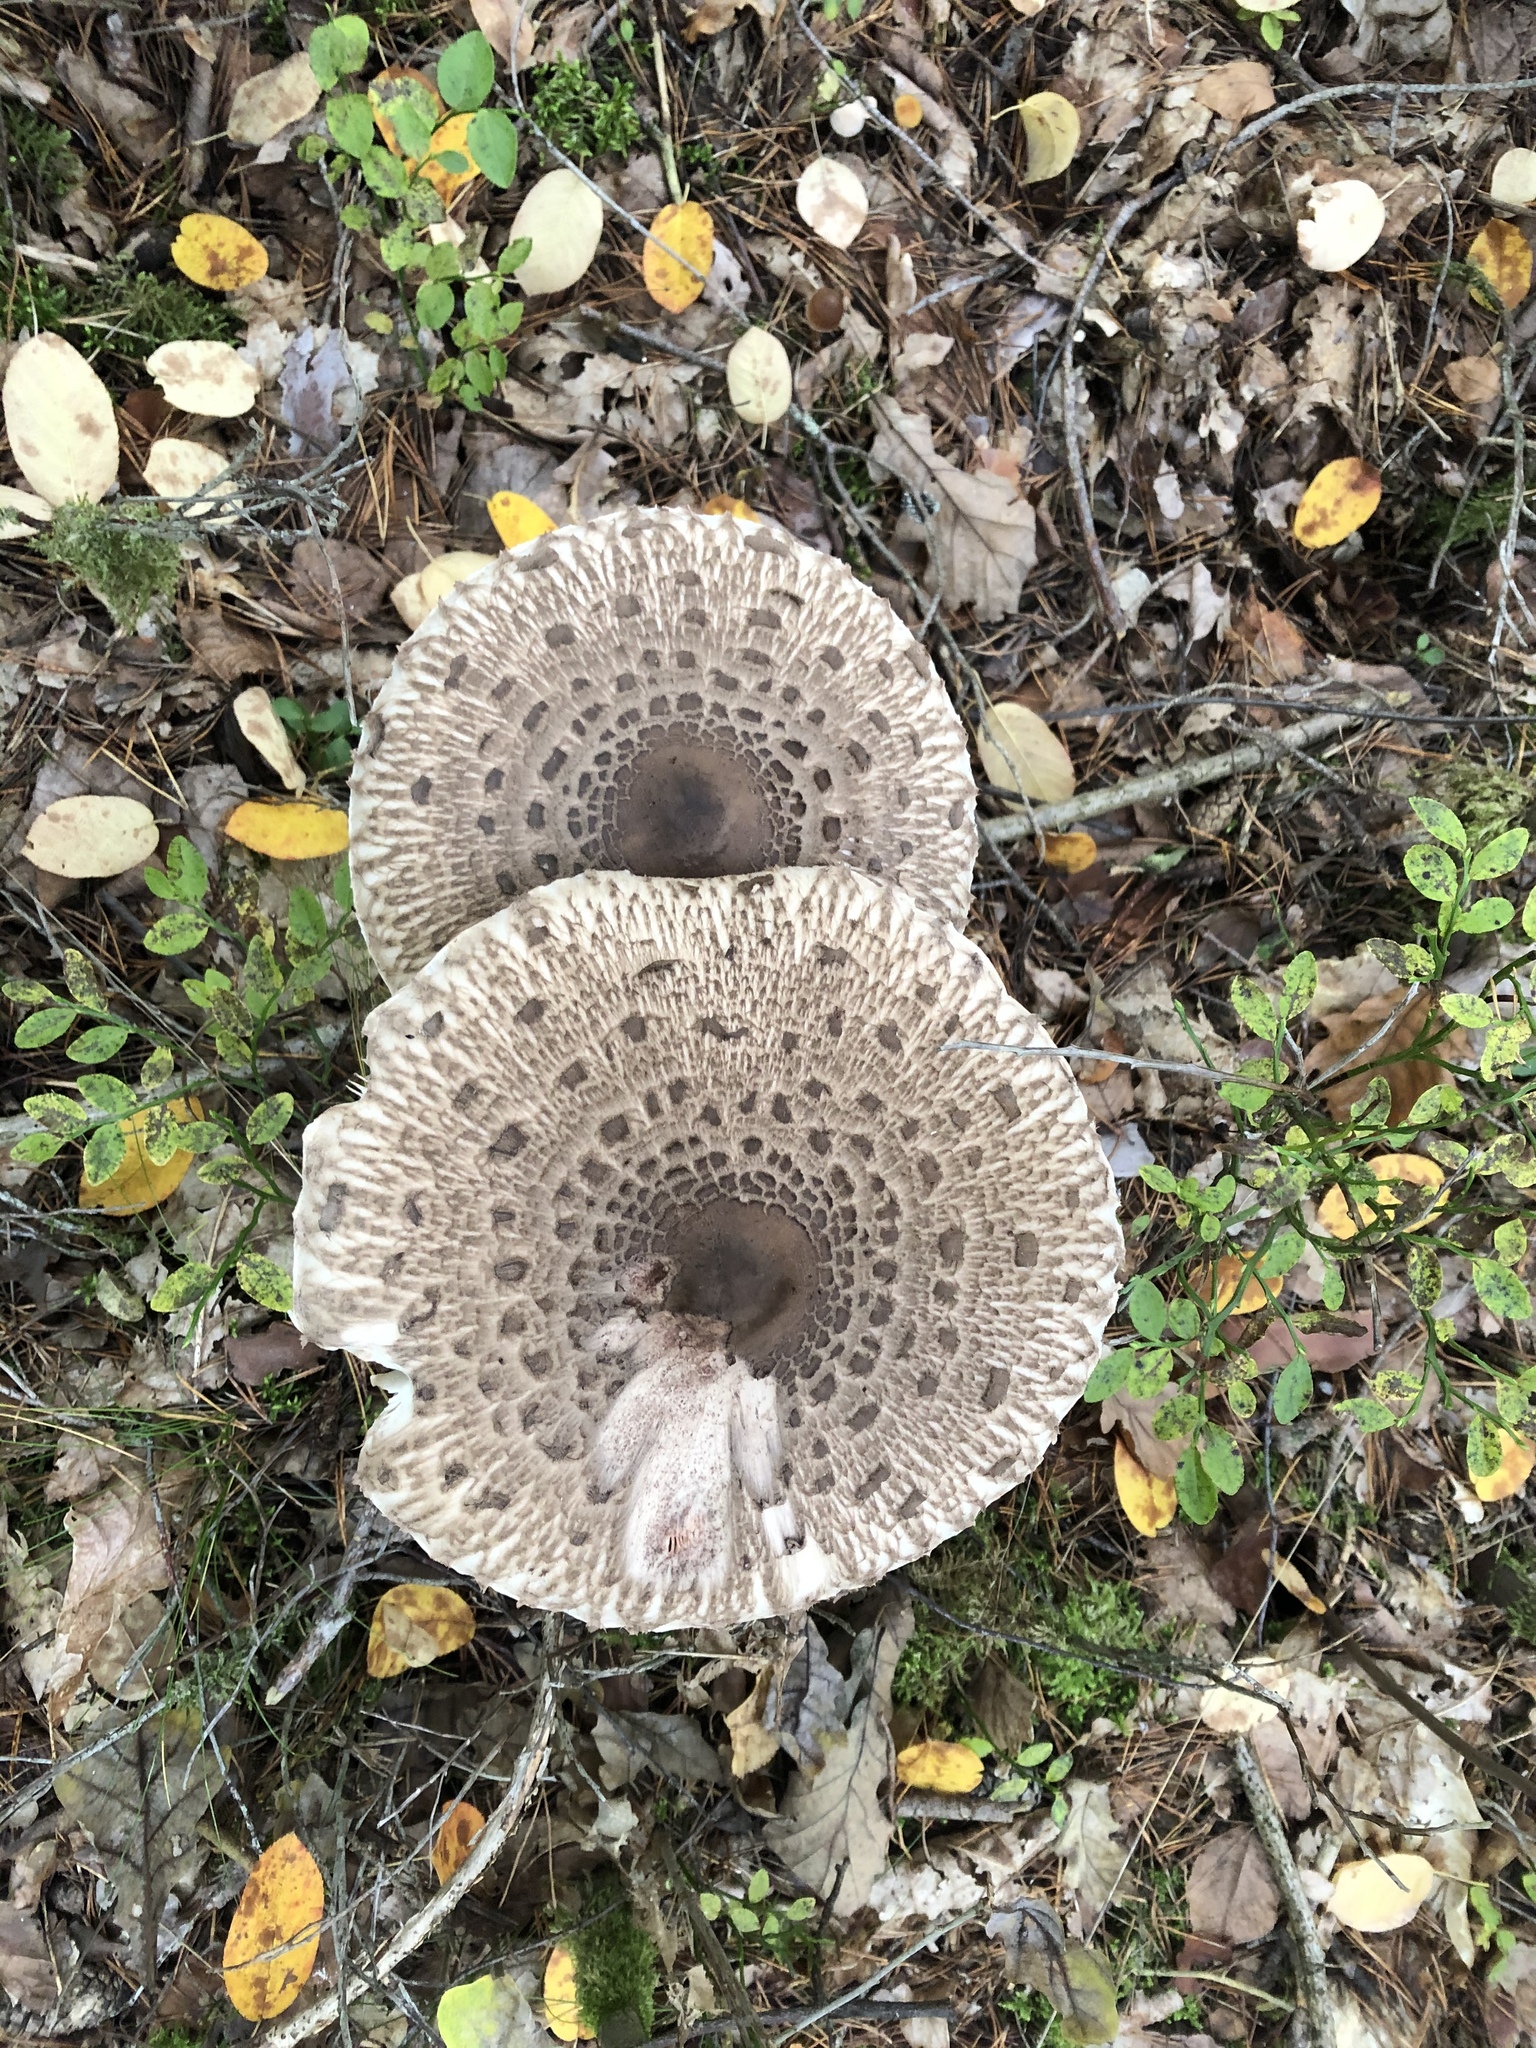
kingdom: Fungi
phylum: Basidiomycota
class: Agaricomycetes
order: Agaricales
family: Agaricaceae
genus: Macrolepiota
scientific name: Macrolepiota procera
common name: Parasol
